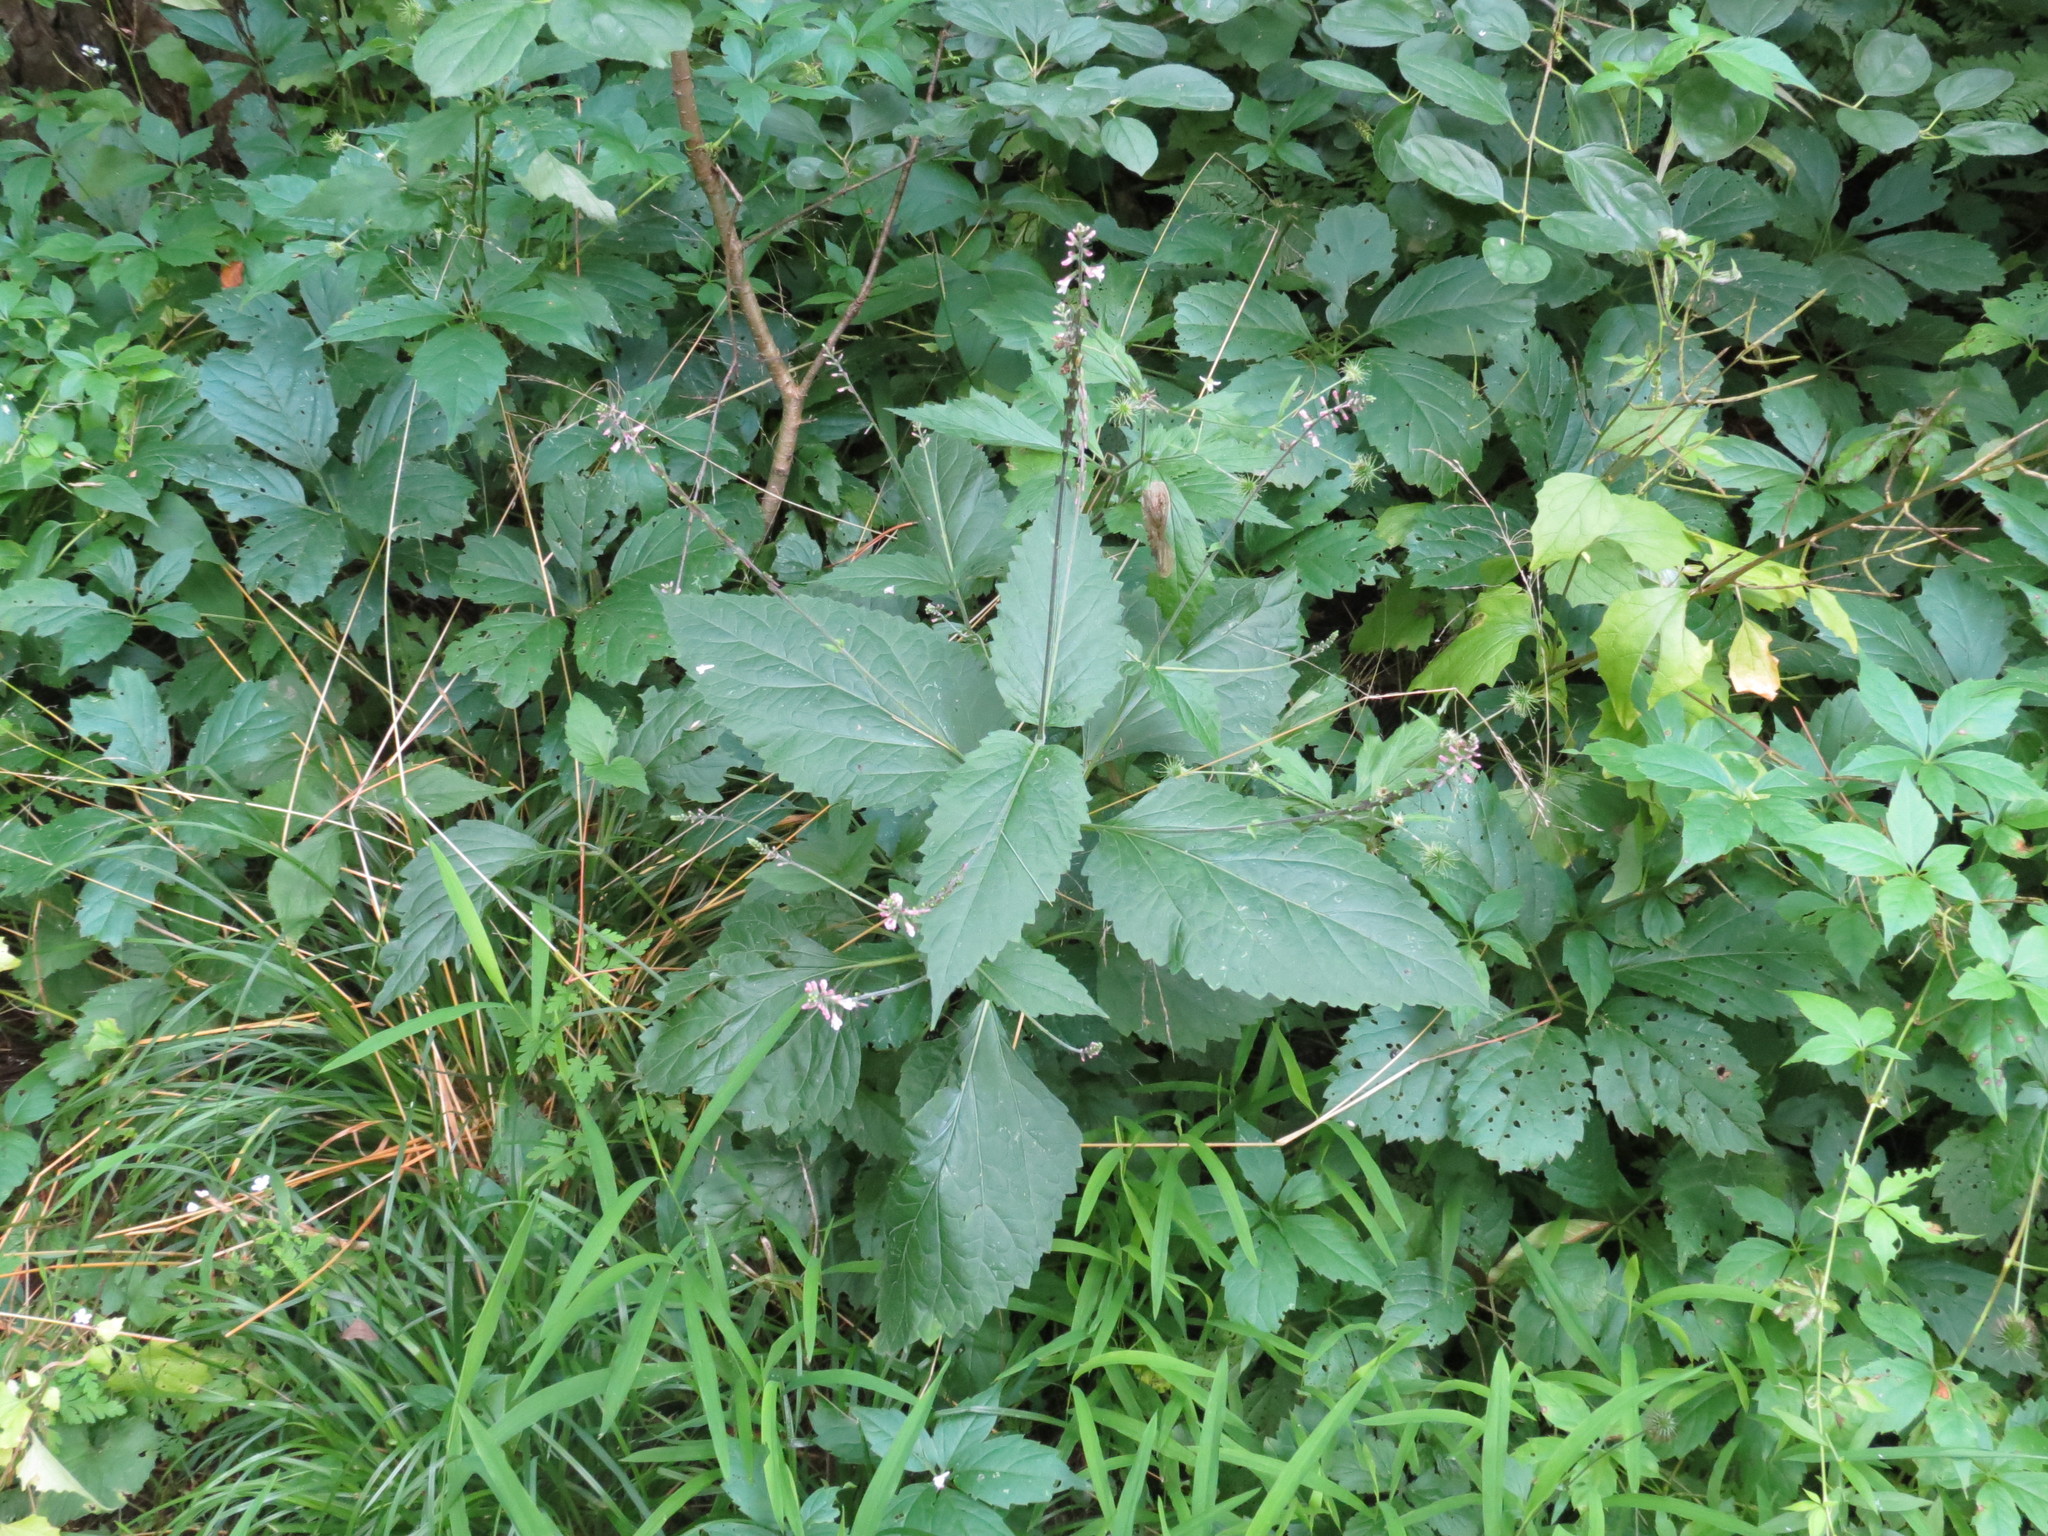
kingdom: Plantae
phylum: Tracheophyta
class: Magnoliopsida
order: Lamiales
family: Phrymaceae
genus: Phryma
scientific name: Phryma leptostachya
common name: American lopseed
